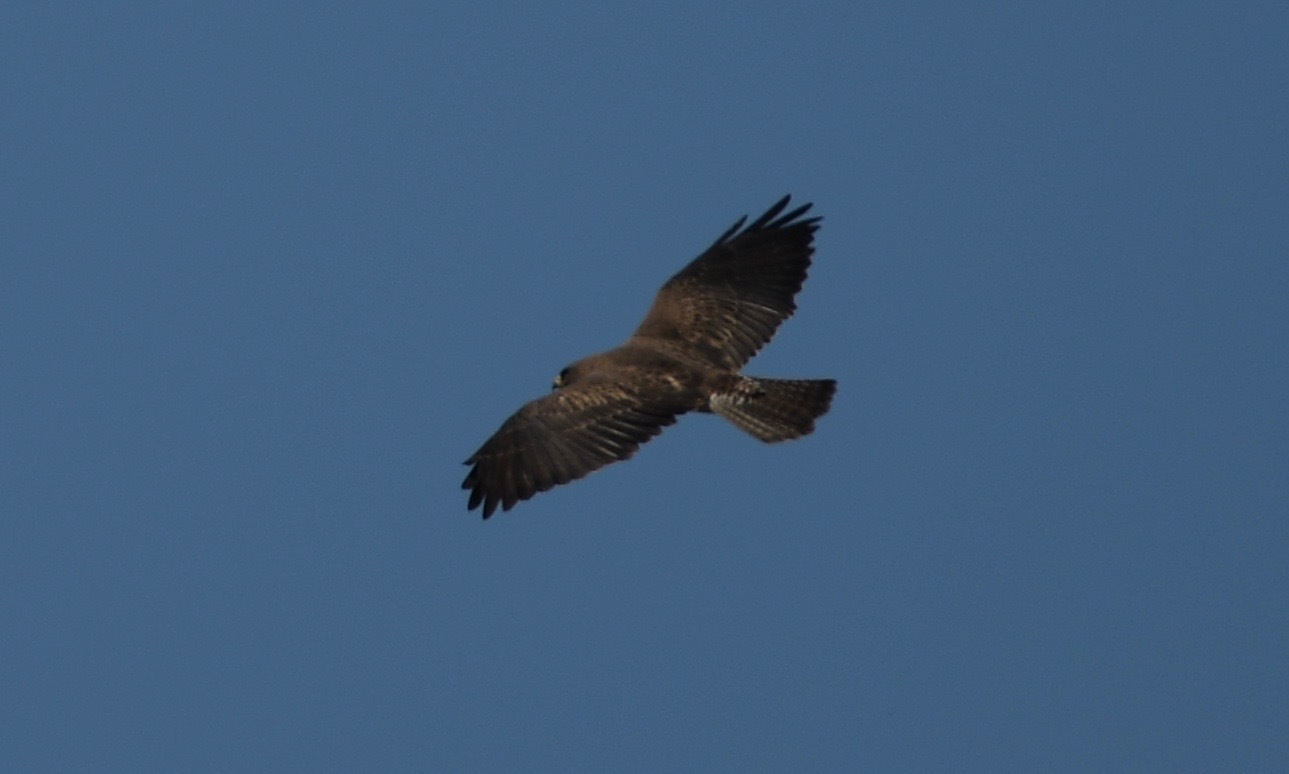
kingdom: Animalia
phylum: Chordata
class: Aves
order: Accipitriformes
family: Accipitridae
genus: Buteo
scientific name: Buteo swainsoni
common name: Swainson's hawk
